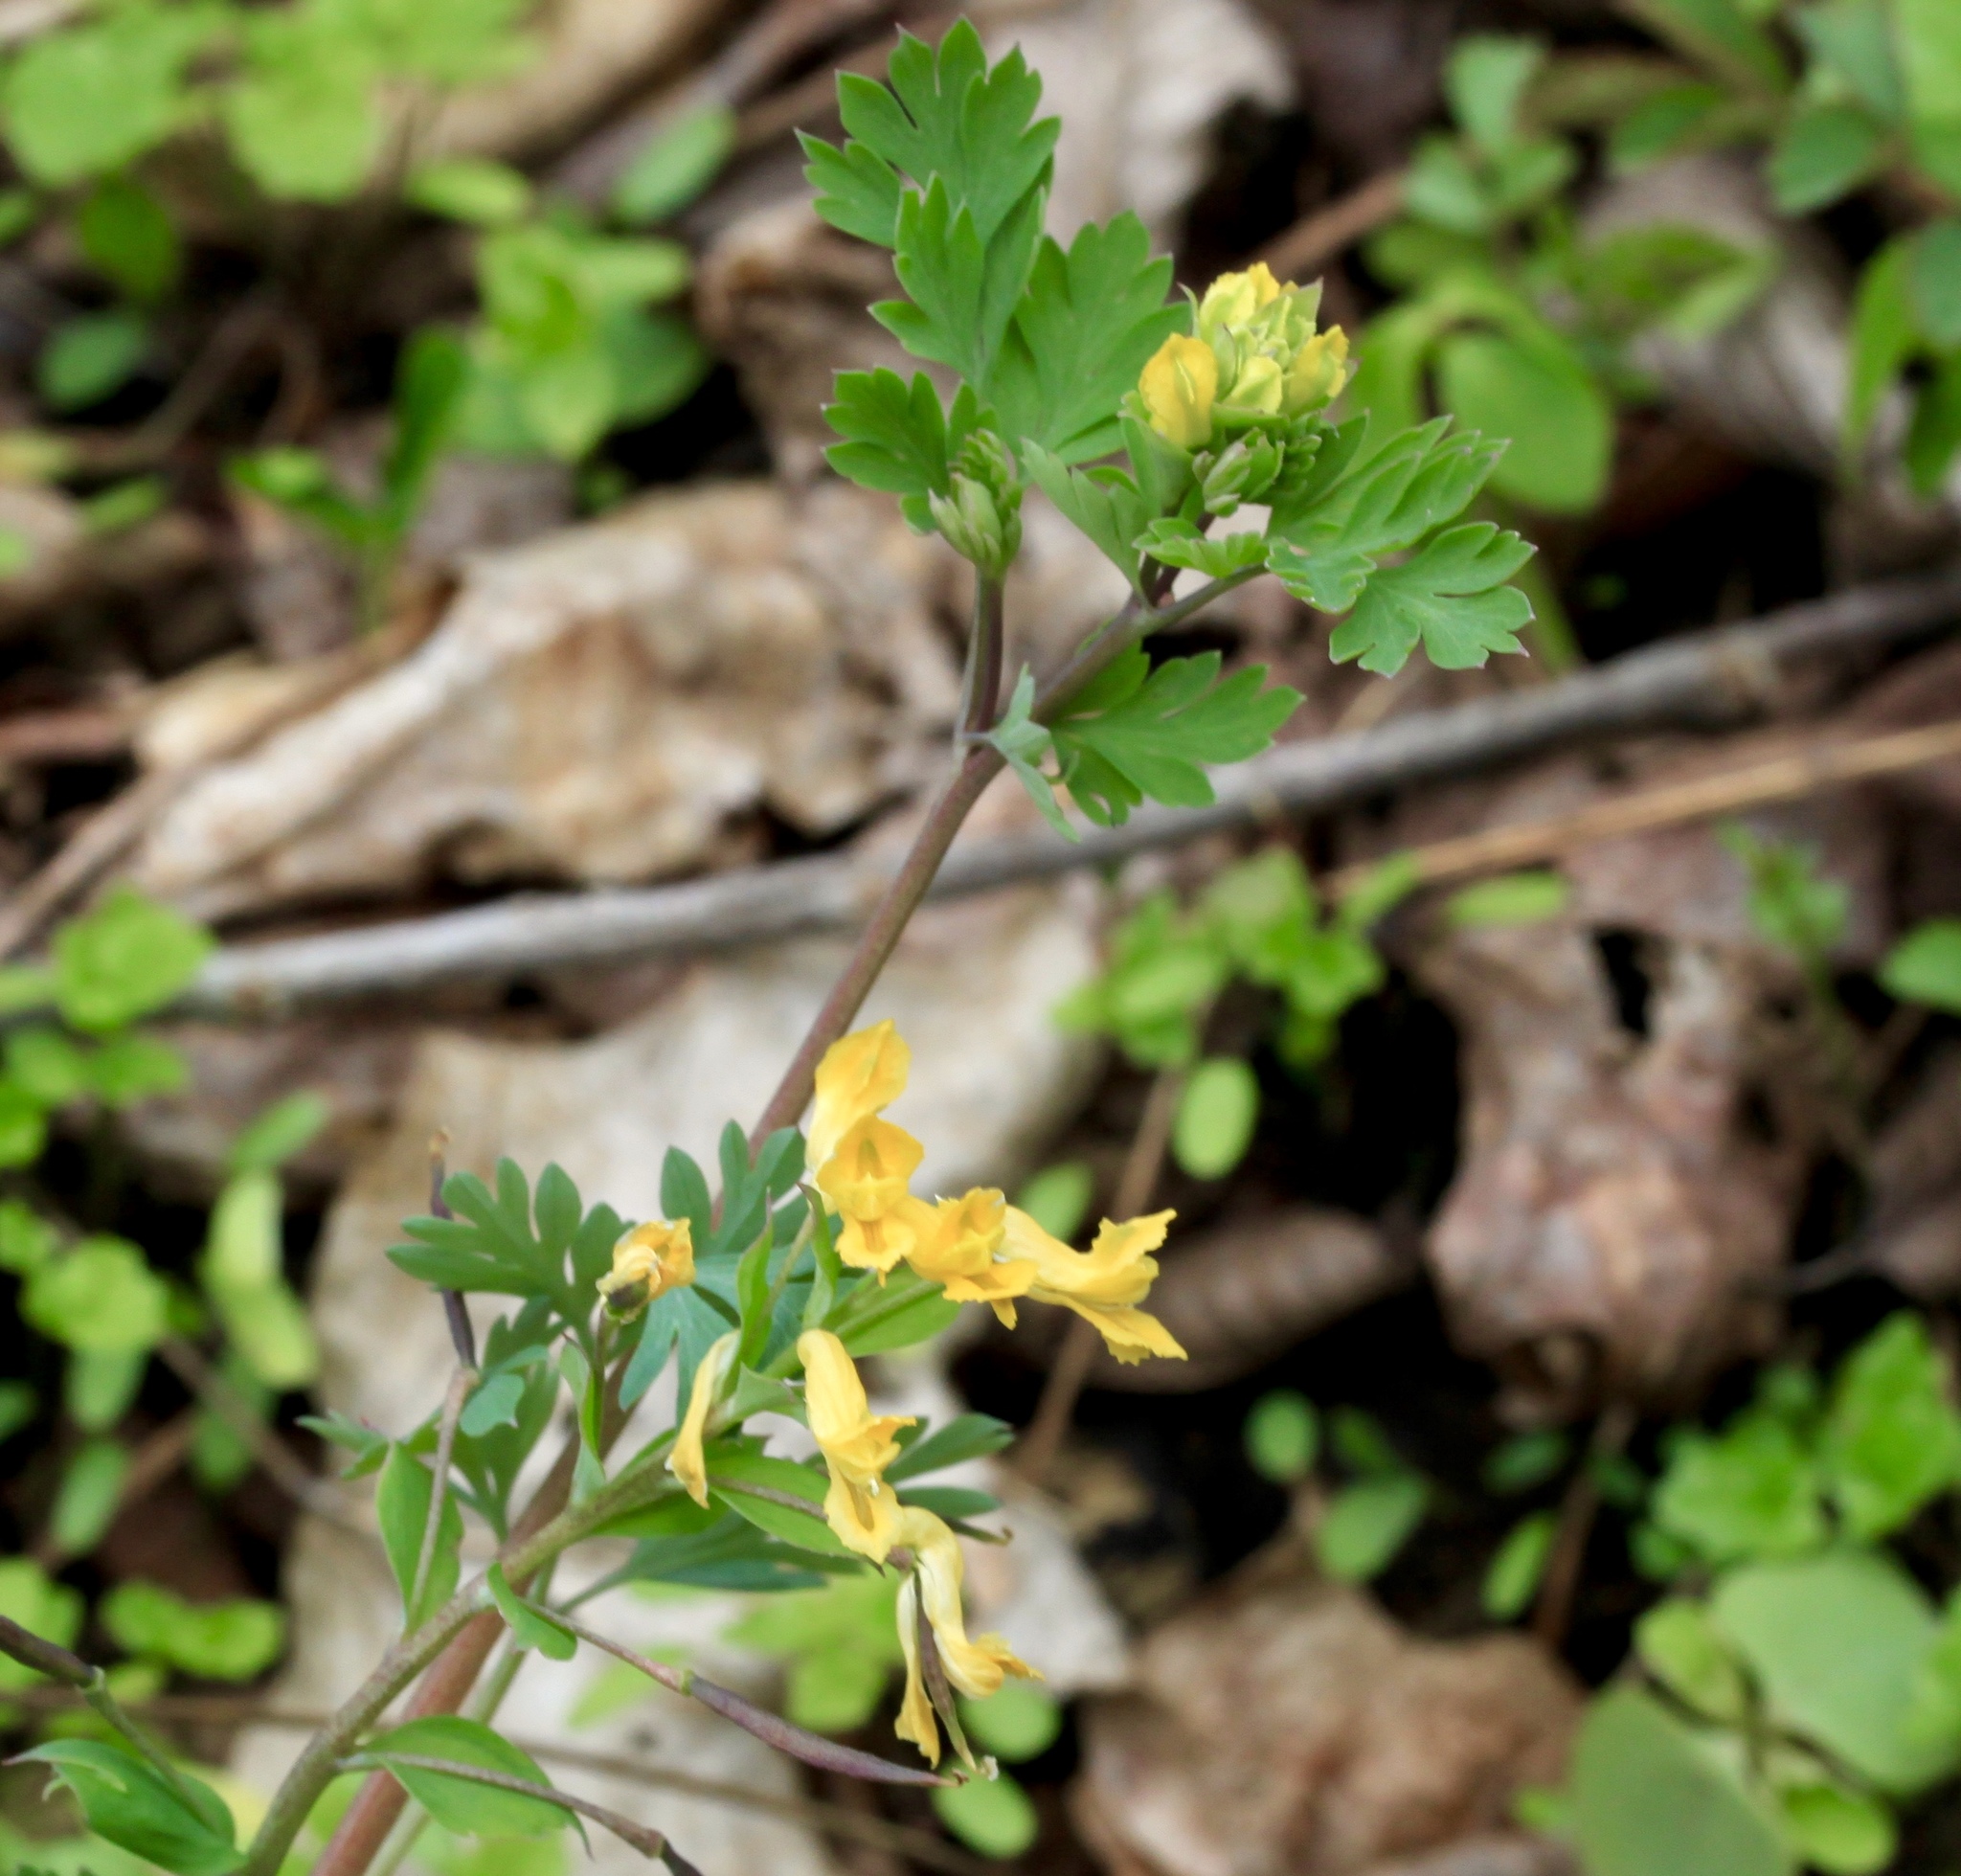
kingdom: Plantae
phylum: Tracheophyta
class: Magnoliopsida
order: Ranunculales
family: Papaveraceae
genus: Corydalis
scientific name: Corydalis flavula
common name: Yellow corydalis
